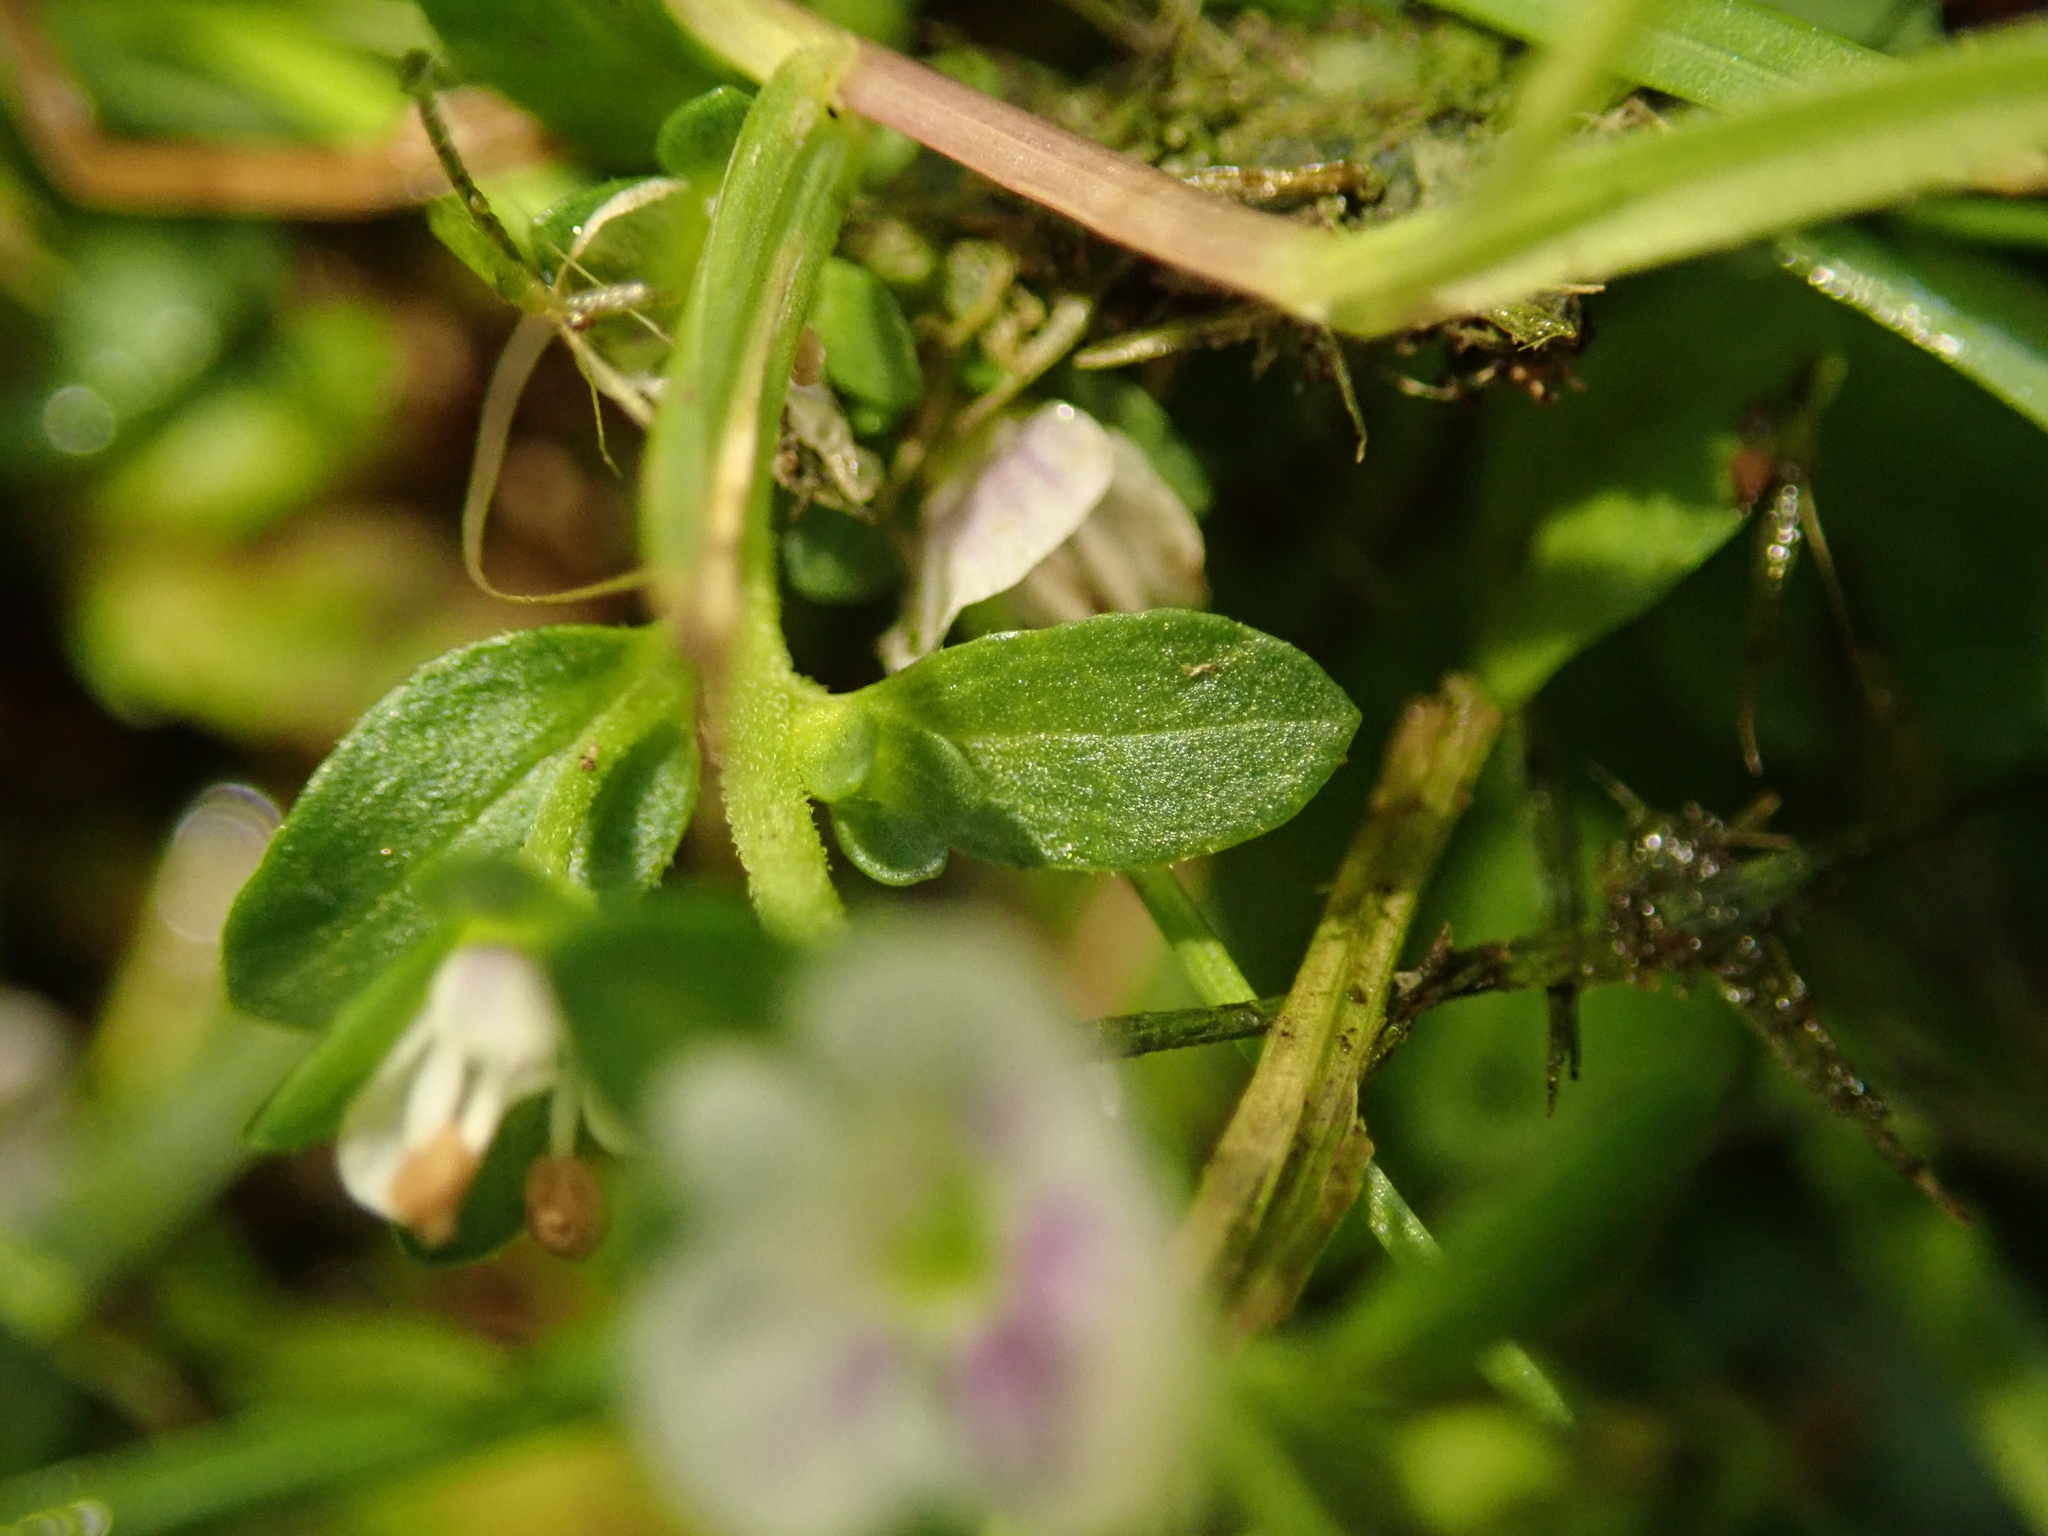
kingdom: Plantae
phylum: Tracheophyta
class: Magnoliopsida
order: Lamiales
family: Plantaginaceae
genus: Veronica
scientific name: Veronica serpyllifolia
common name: Thyme-leaved speedwell
